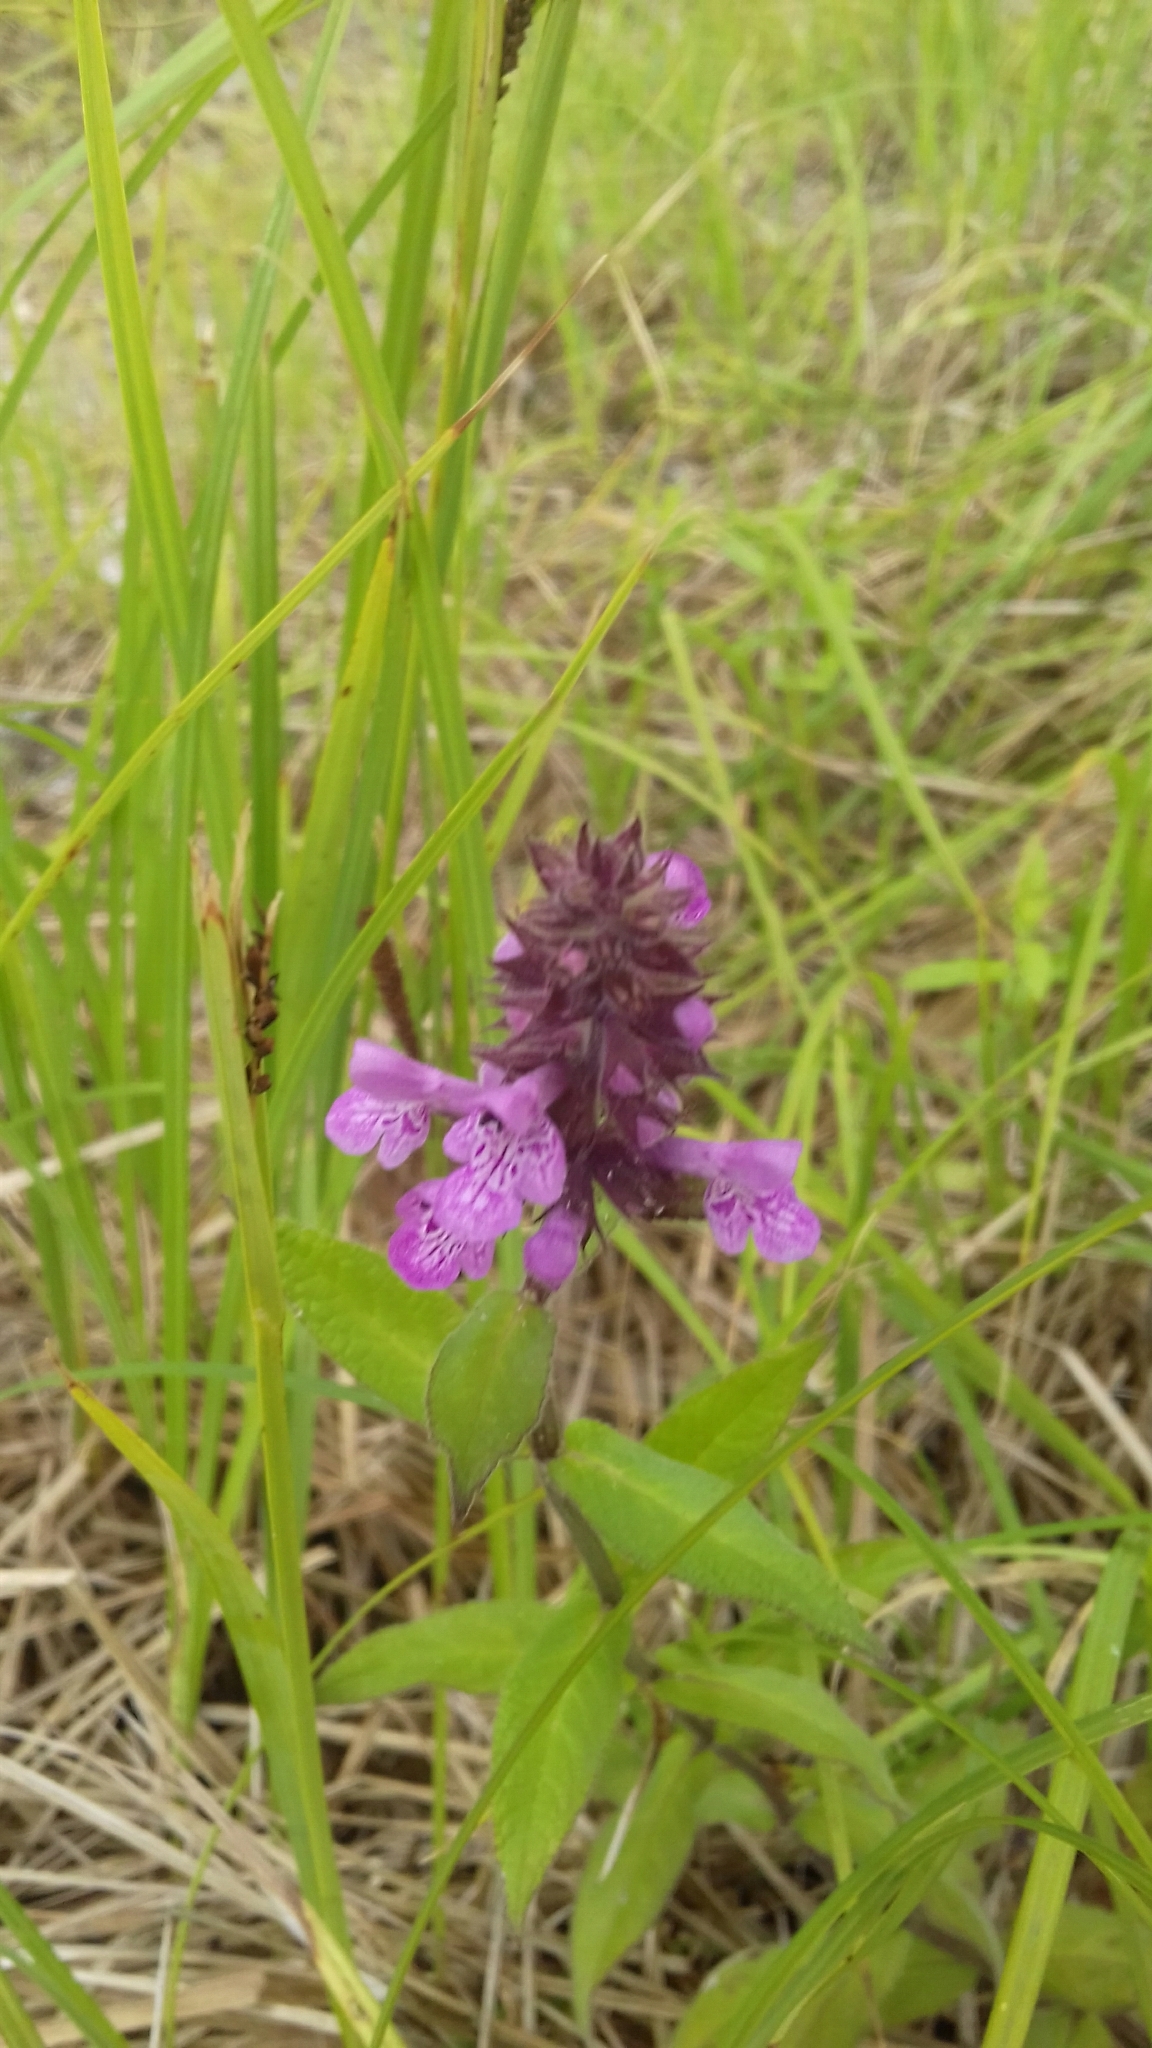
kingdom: Plantae
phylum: Tracheophyta
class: Magnoliopsida
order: Lamiales
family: Lamiaceae
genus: Stachys
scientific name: Stachys palustris
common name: Marsh woundwort
